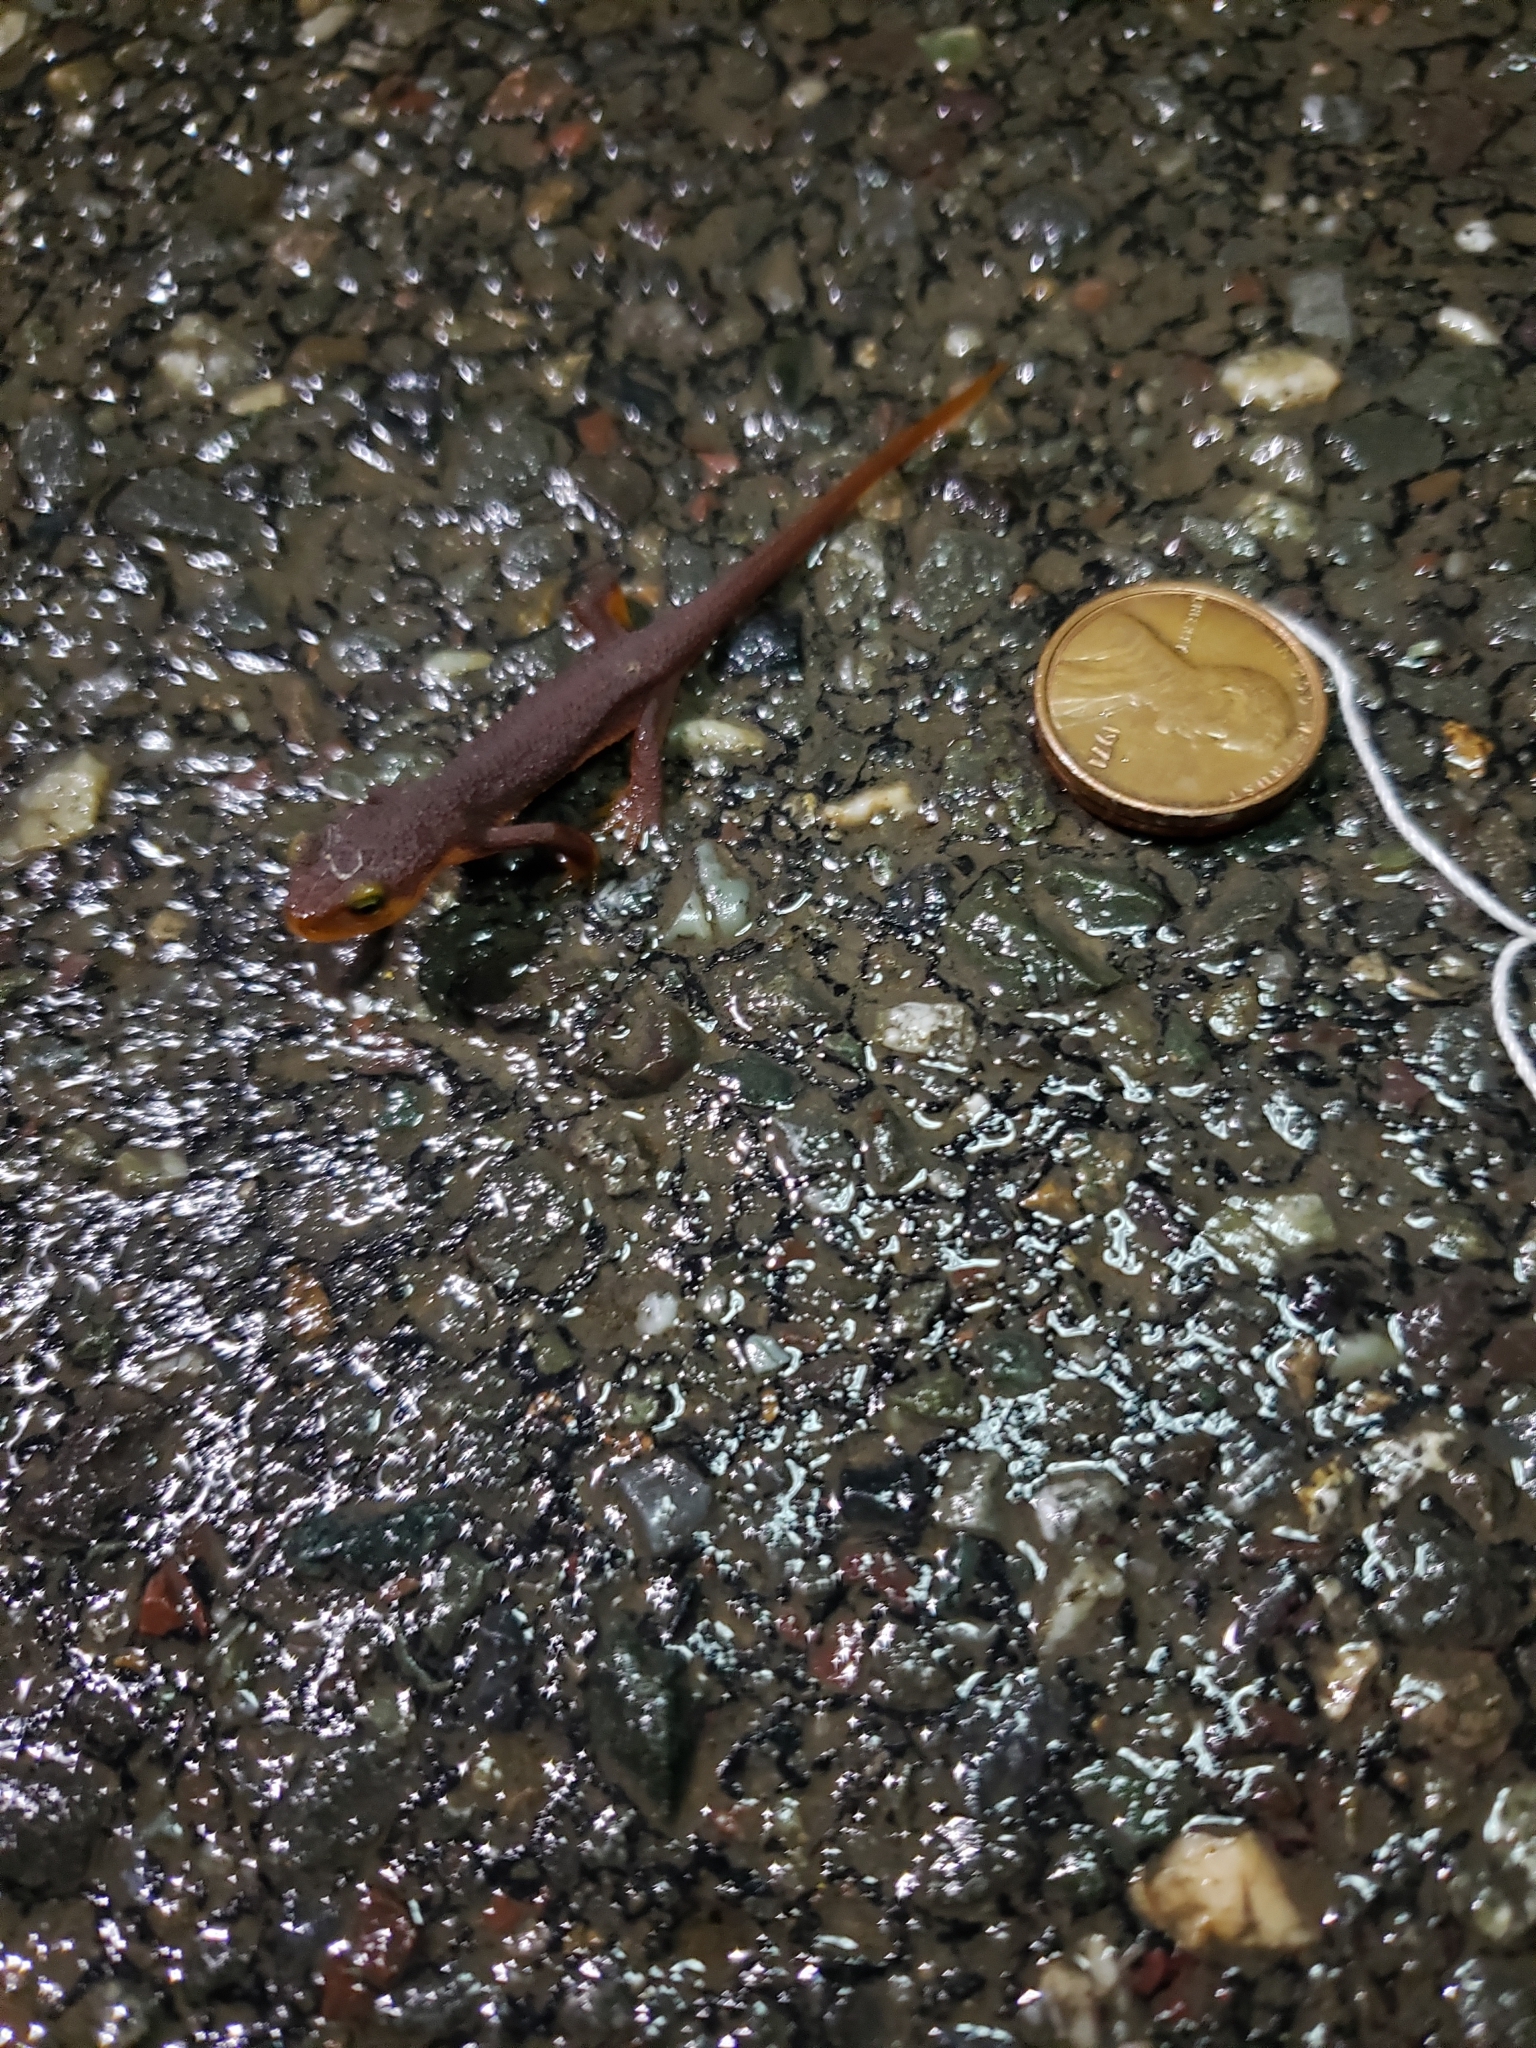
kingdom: Animalia
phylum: Chordata
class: Amphibia
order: Caudata
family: Salamandridae
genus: Taricha
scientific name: Taricha torosa
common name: California newt
